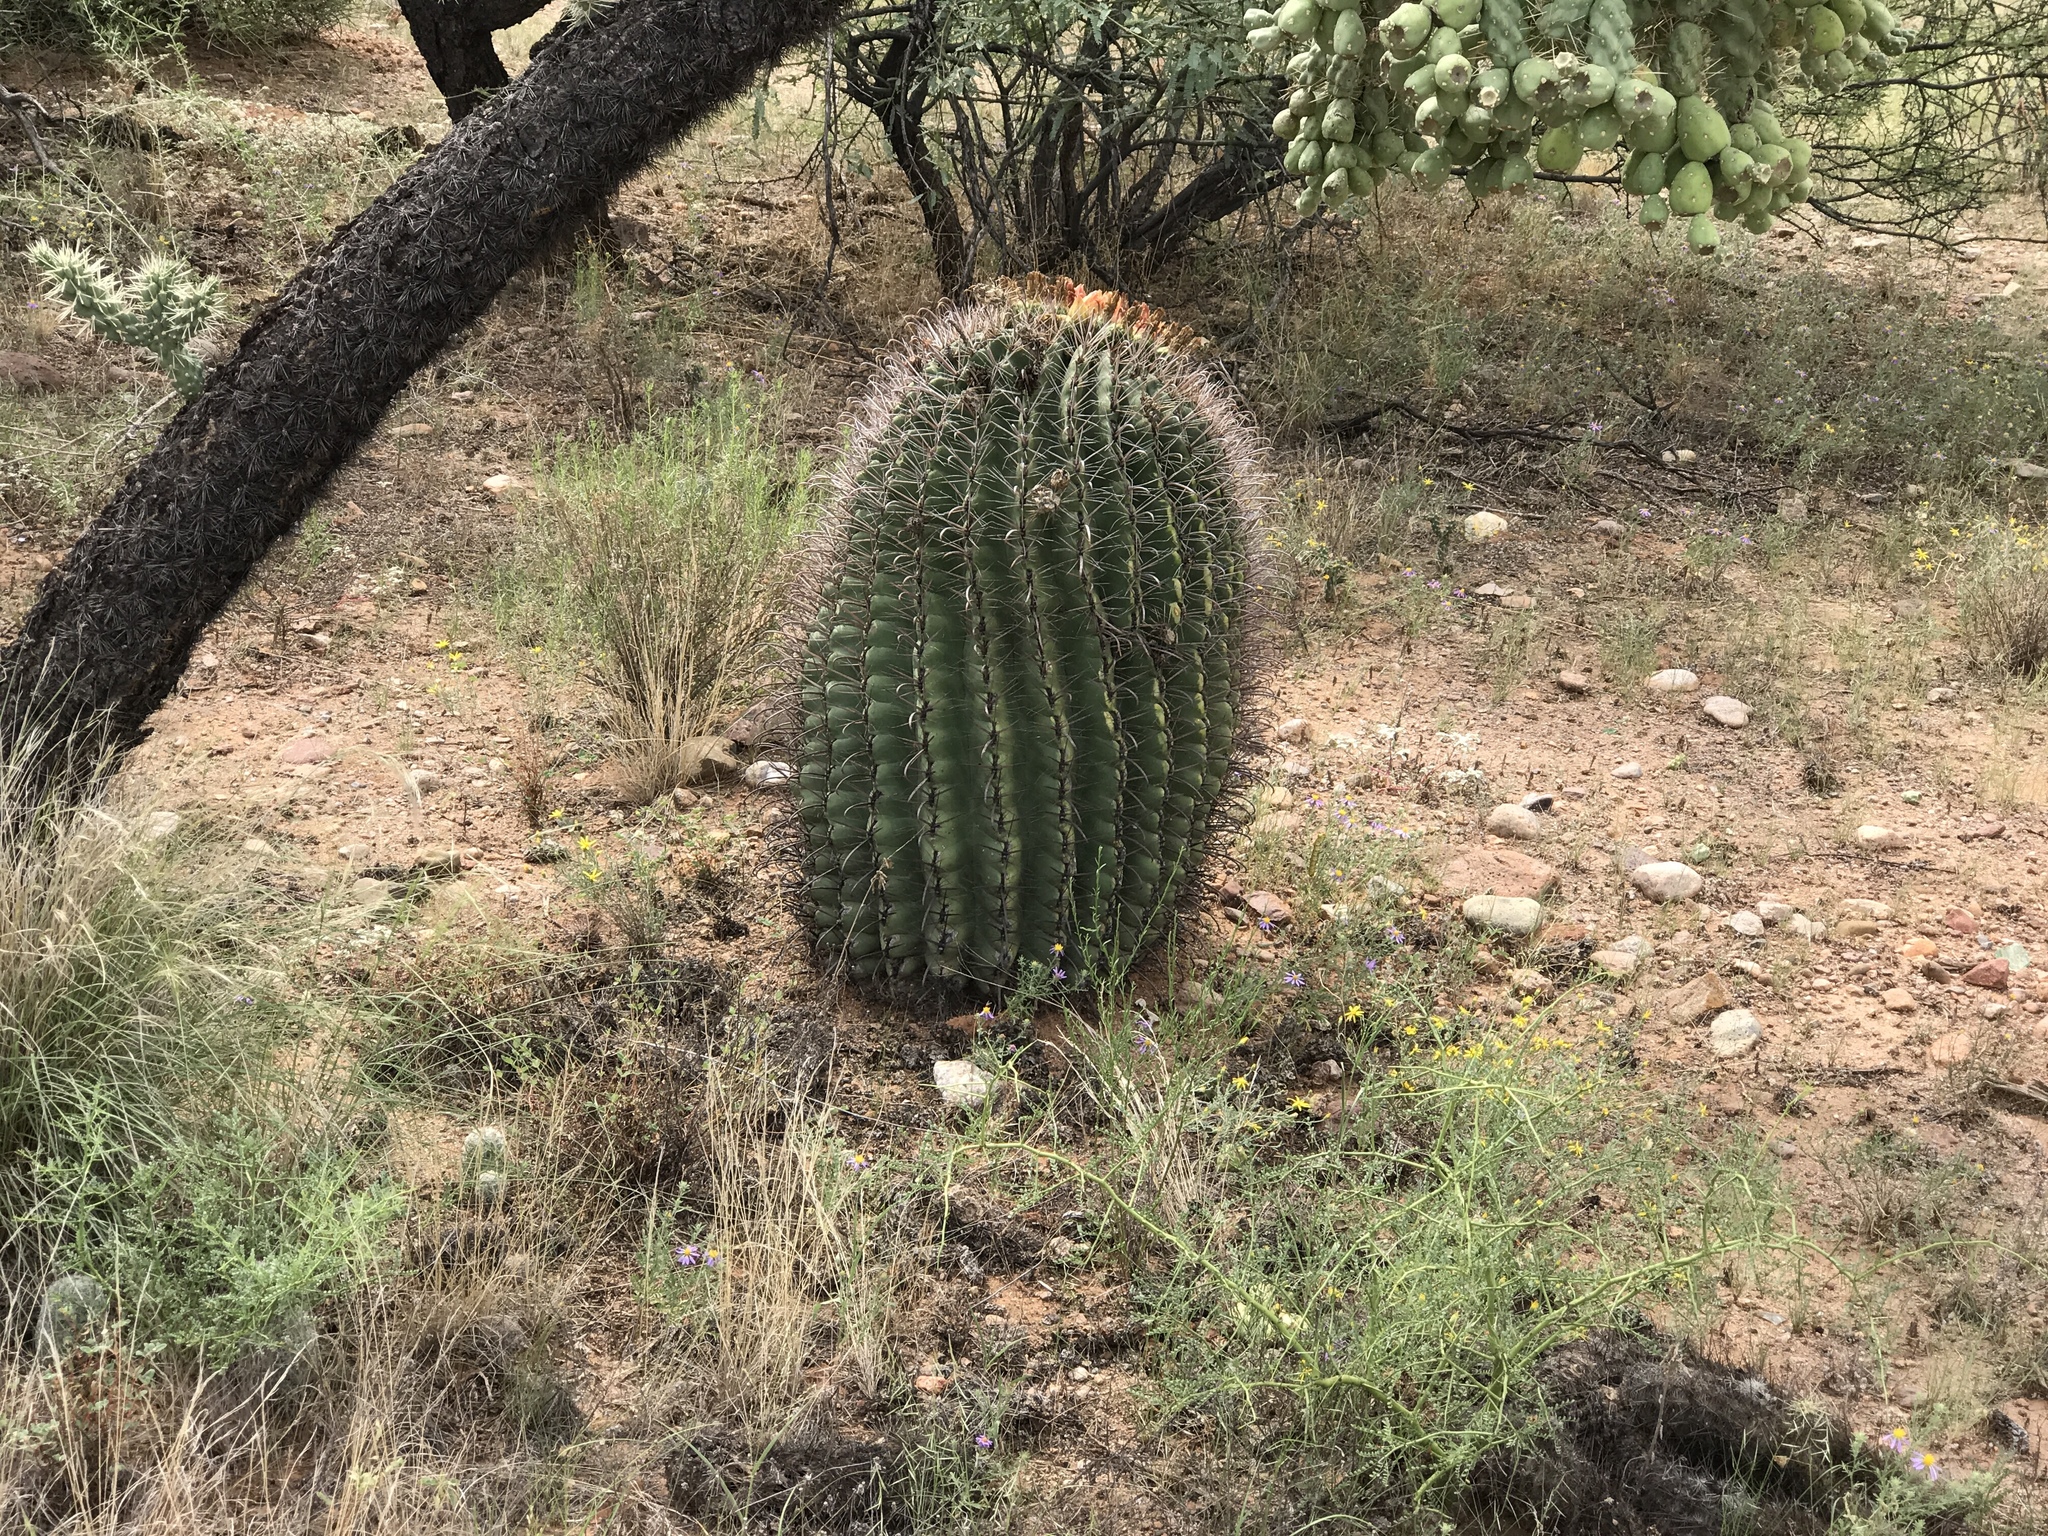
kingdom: Plantae
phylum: Tracheophyta
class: Magnoliopsida
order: Caryophyllales
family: Cactaceae
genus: Ferocactus
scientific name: Ferocactus wislizeni
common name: Candy barrel cactus
